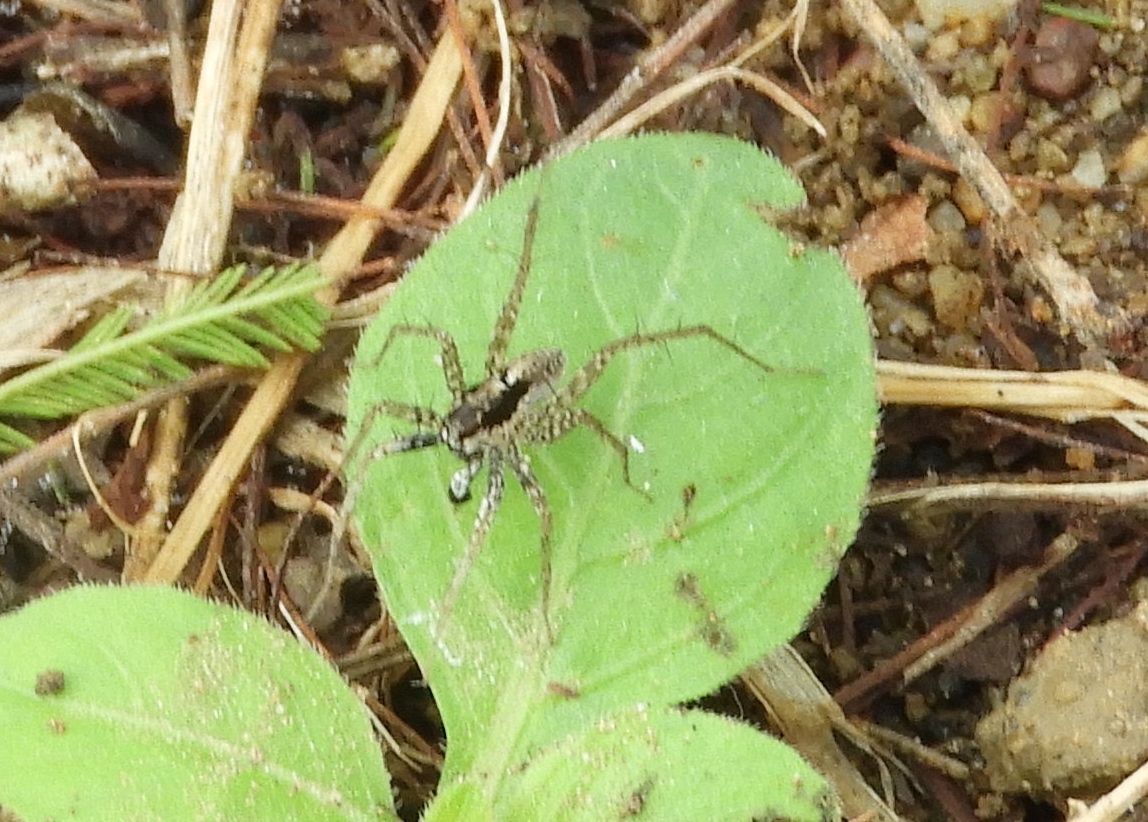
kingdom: Animalia
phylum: Arthropoda
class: Arachnida
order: Araneae
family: Lycosidae
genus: Pardosa
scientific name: Pardosa
